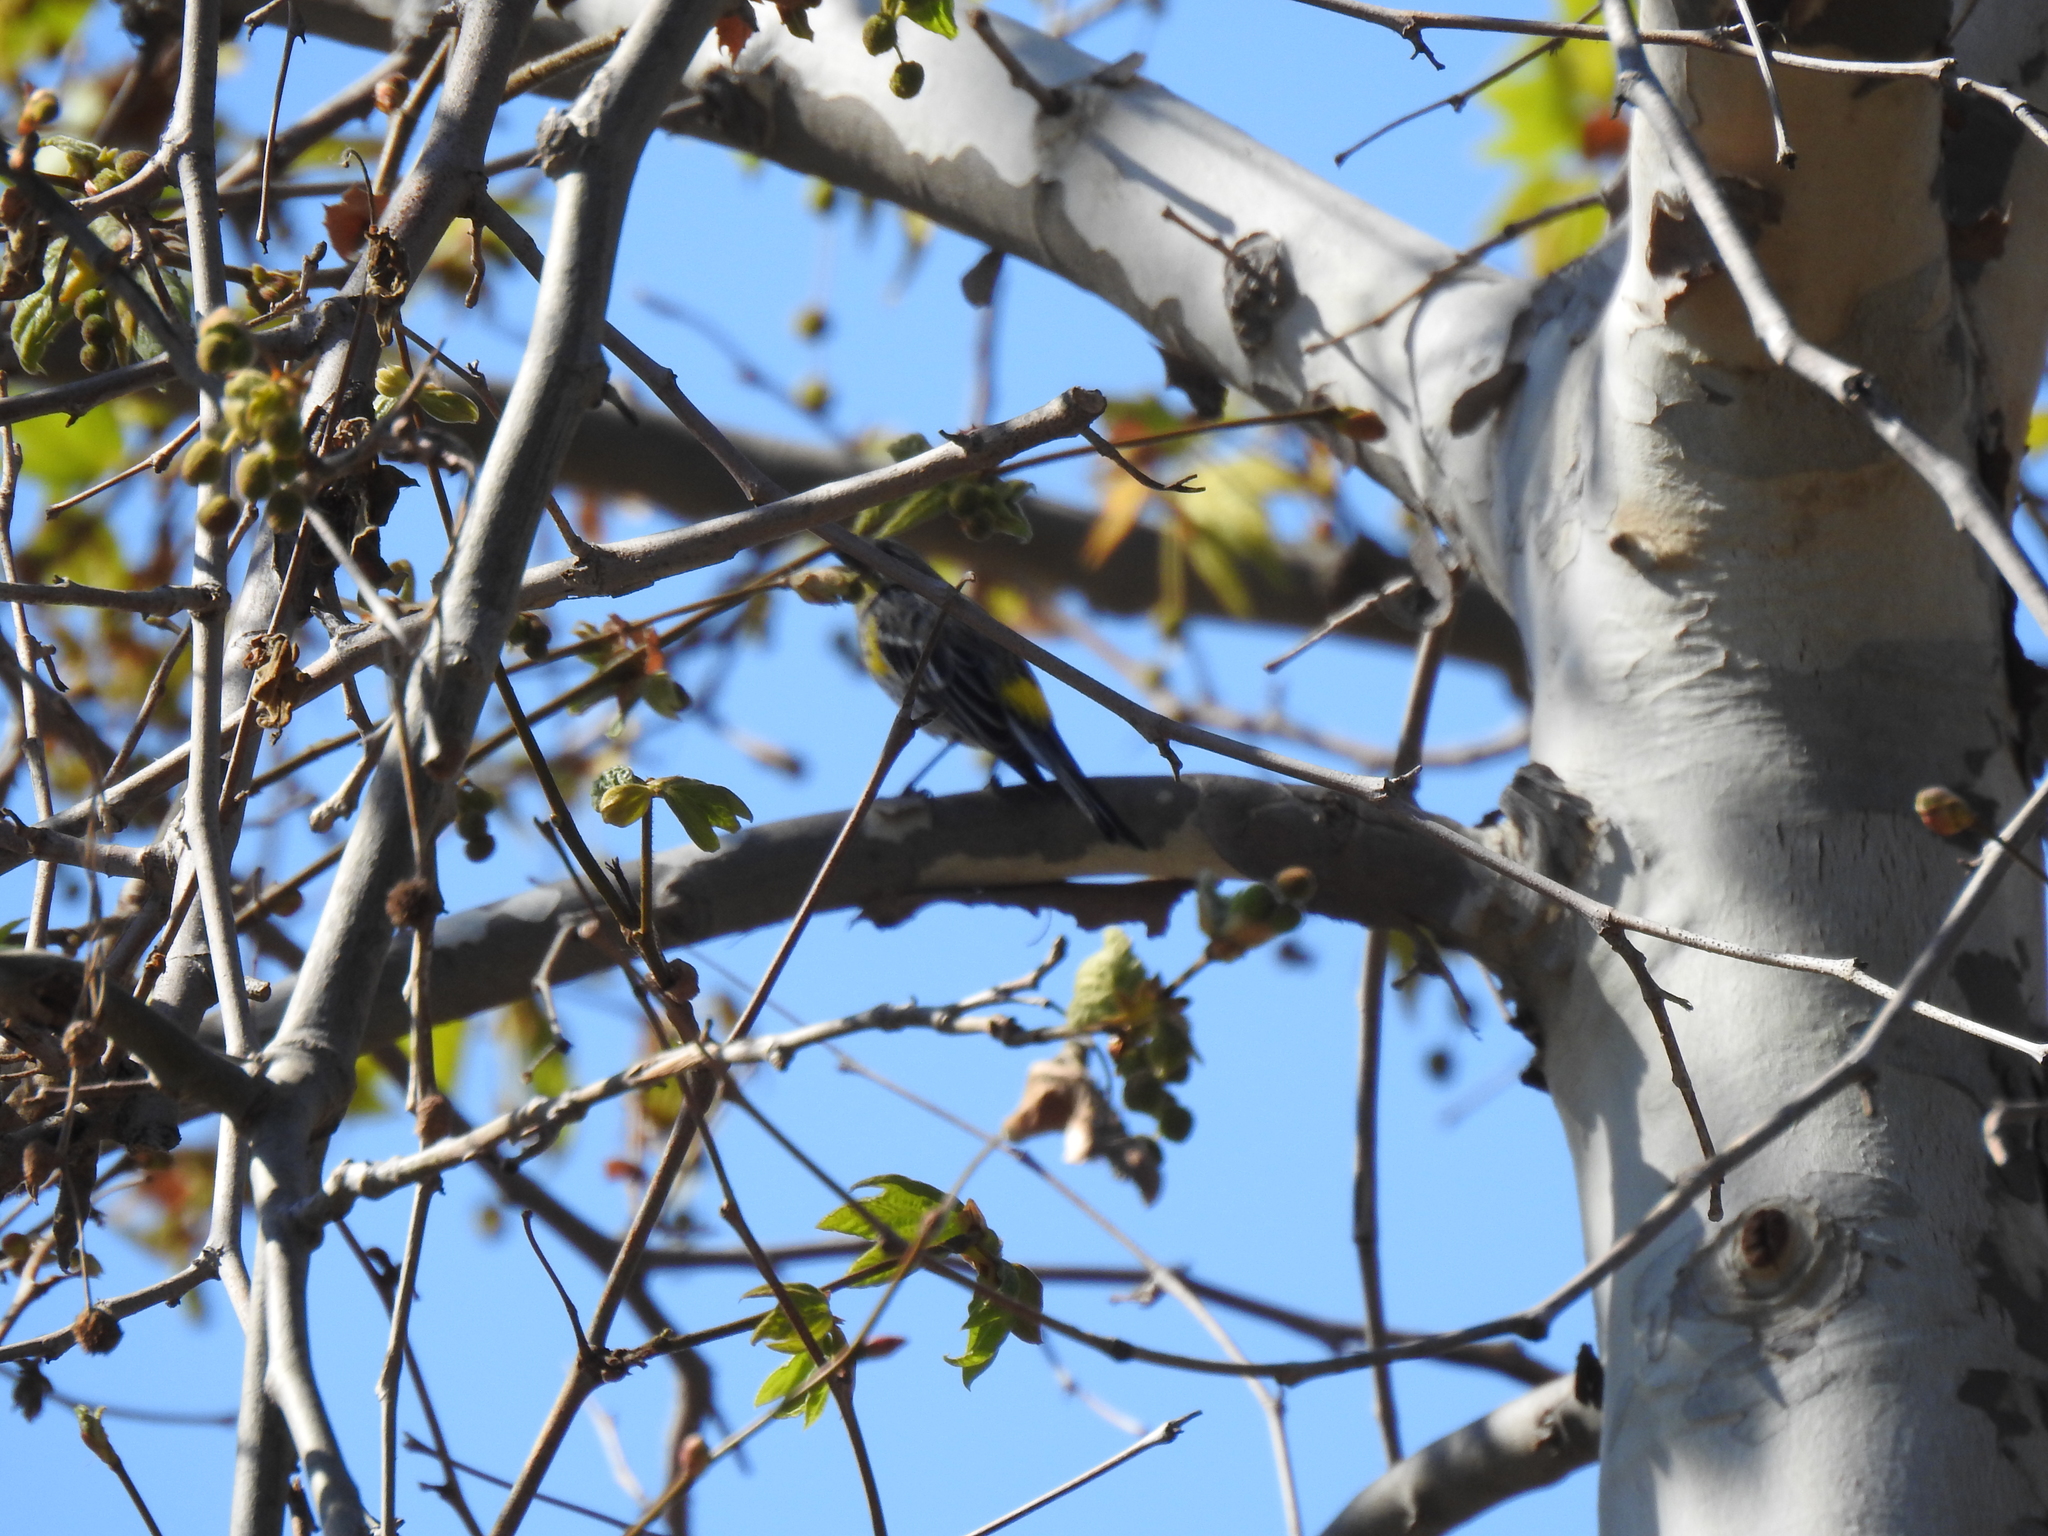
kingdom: Animalia
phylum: Chordata
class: Aves
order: Passeriformes
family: Parulidae
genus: Setophaga
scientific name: Setophaga coronata
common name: Myrtle warbler
